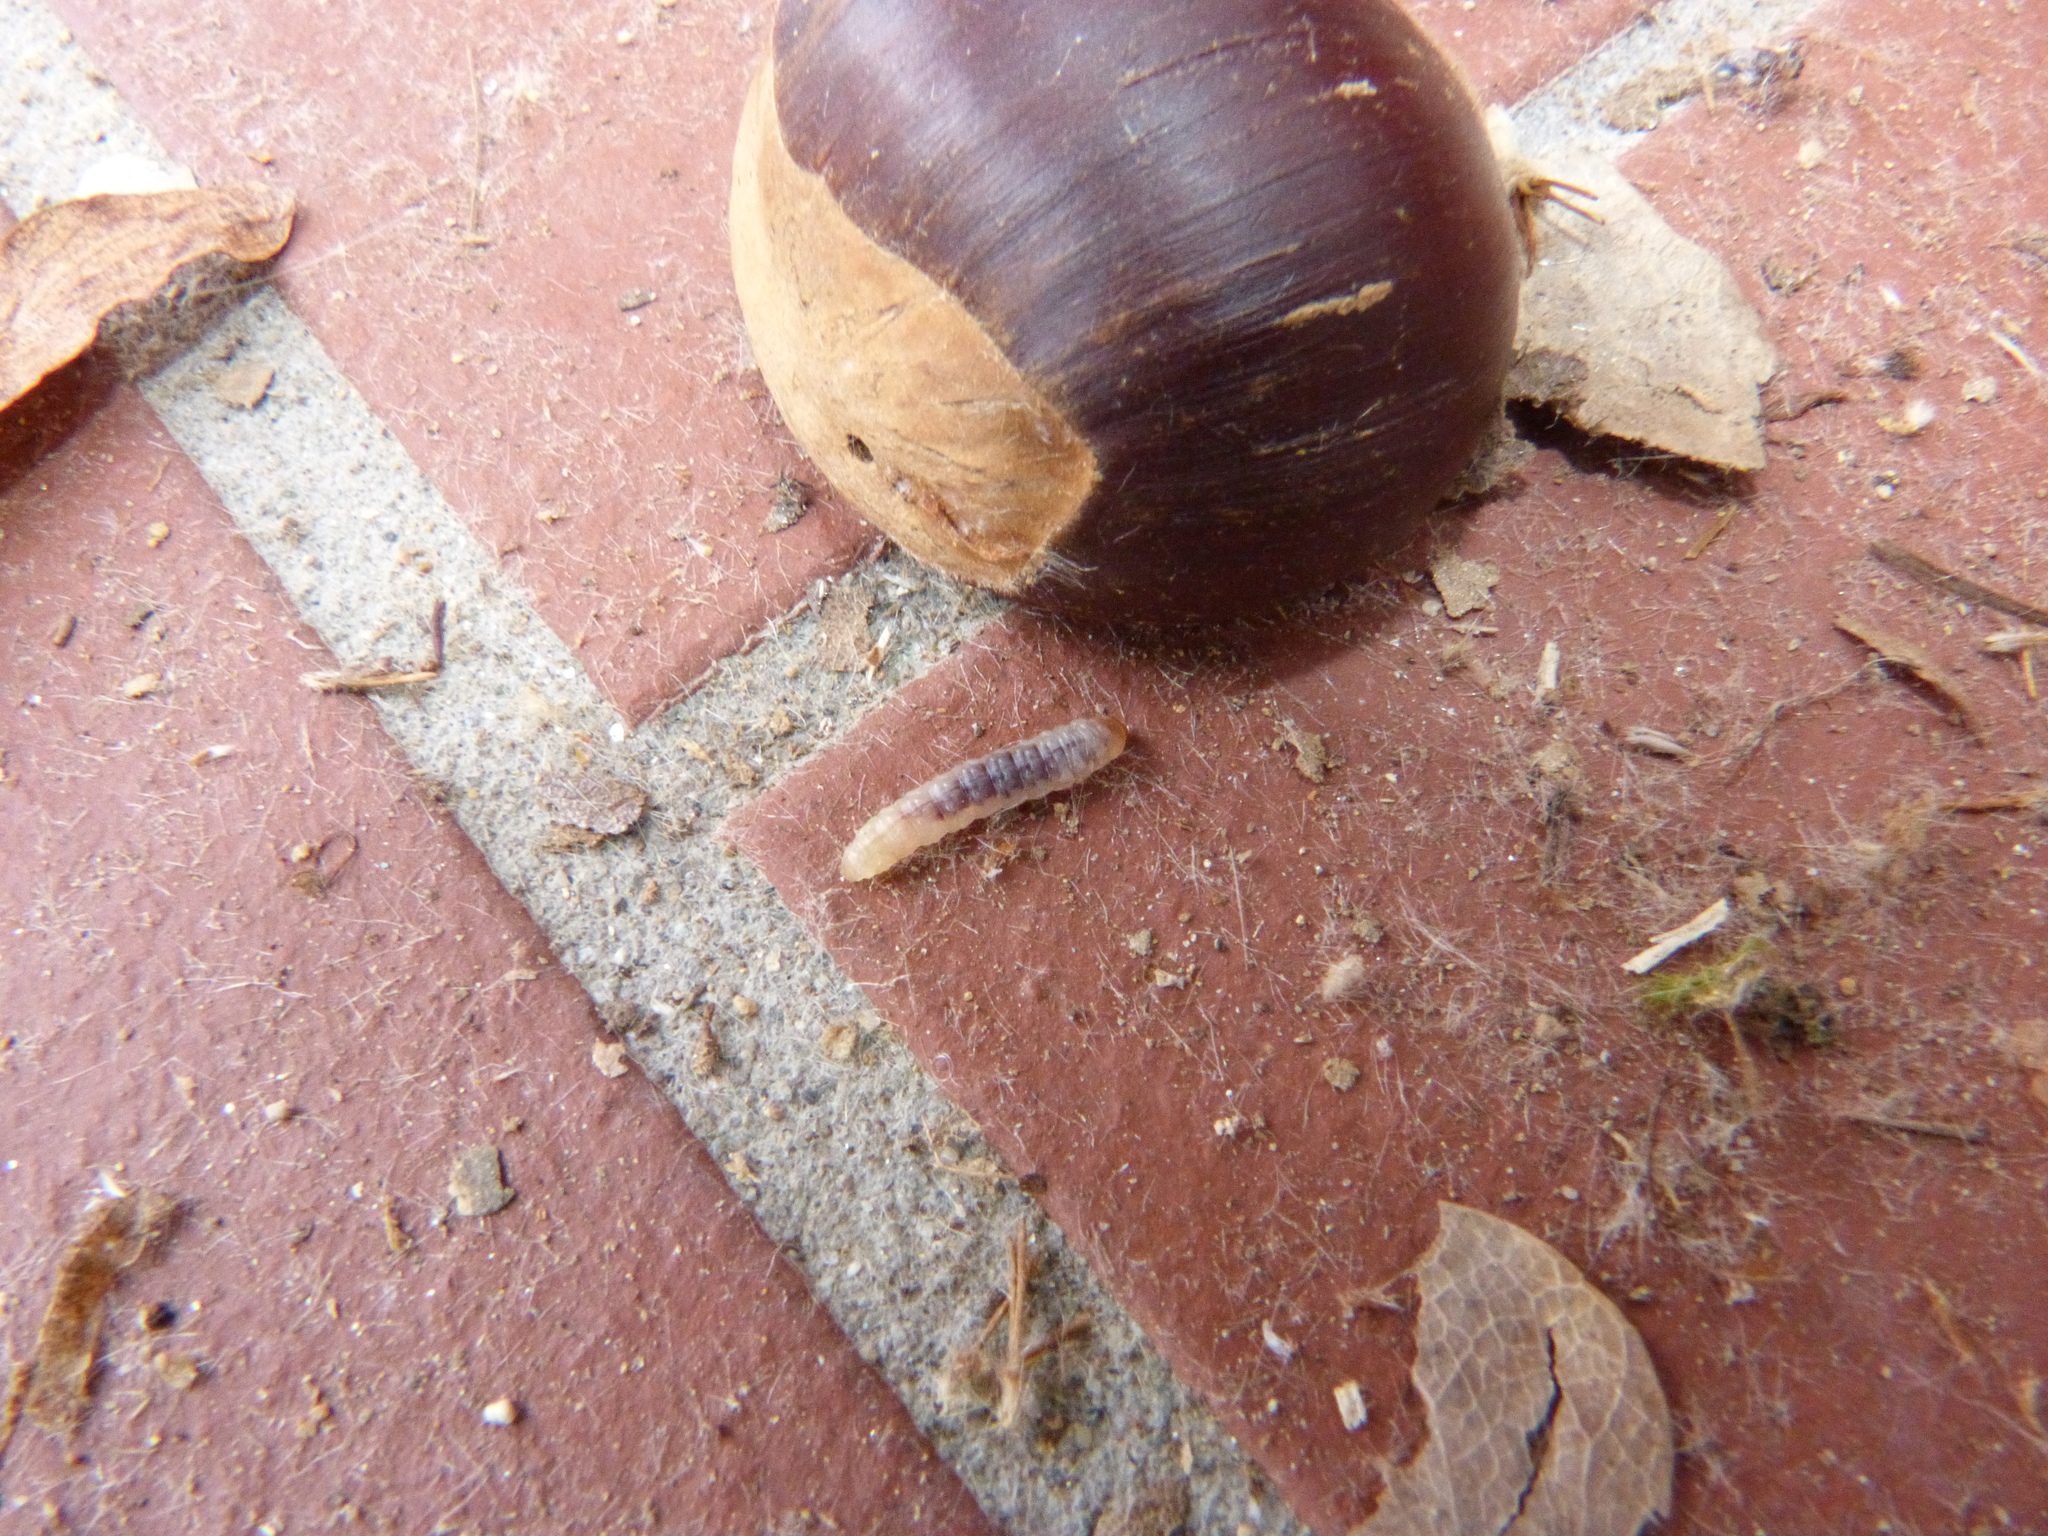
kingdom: Animalia
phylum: Arthropoda
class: Insecta
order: Lepidoptera
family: Tortricidae
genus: Cydia
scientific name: Cydia splendana
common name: De: kastanienwickler, eichenwickler es: oruga de la castaña fr: carpocapse des châtaignes it: cidia o tortrice tardiva delle castagne pt: bichado das castanhas gb: acorn moth, chestnut fruit tortrix
